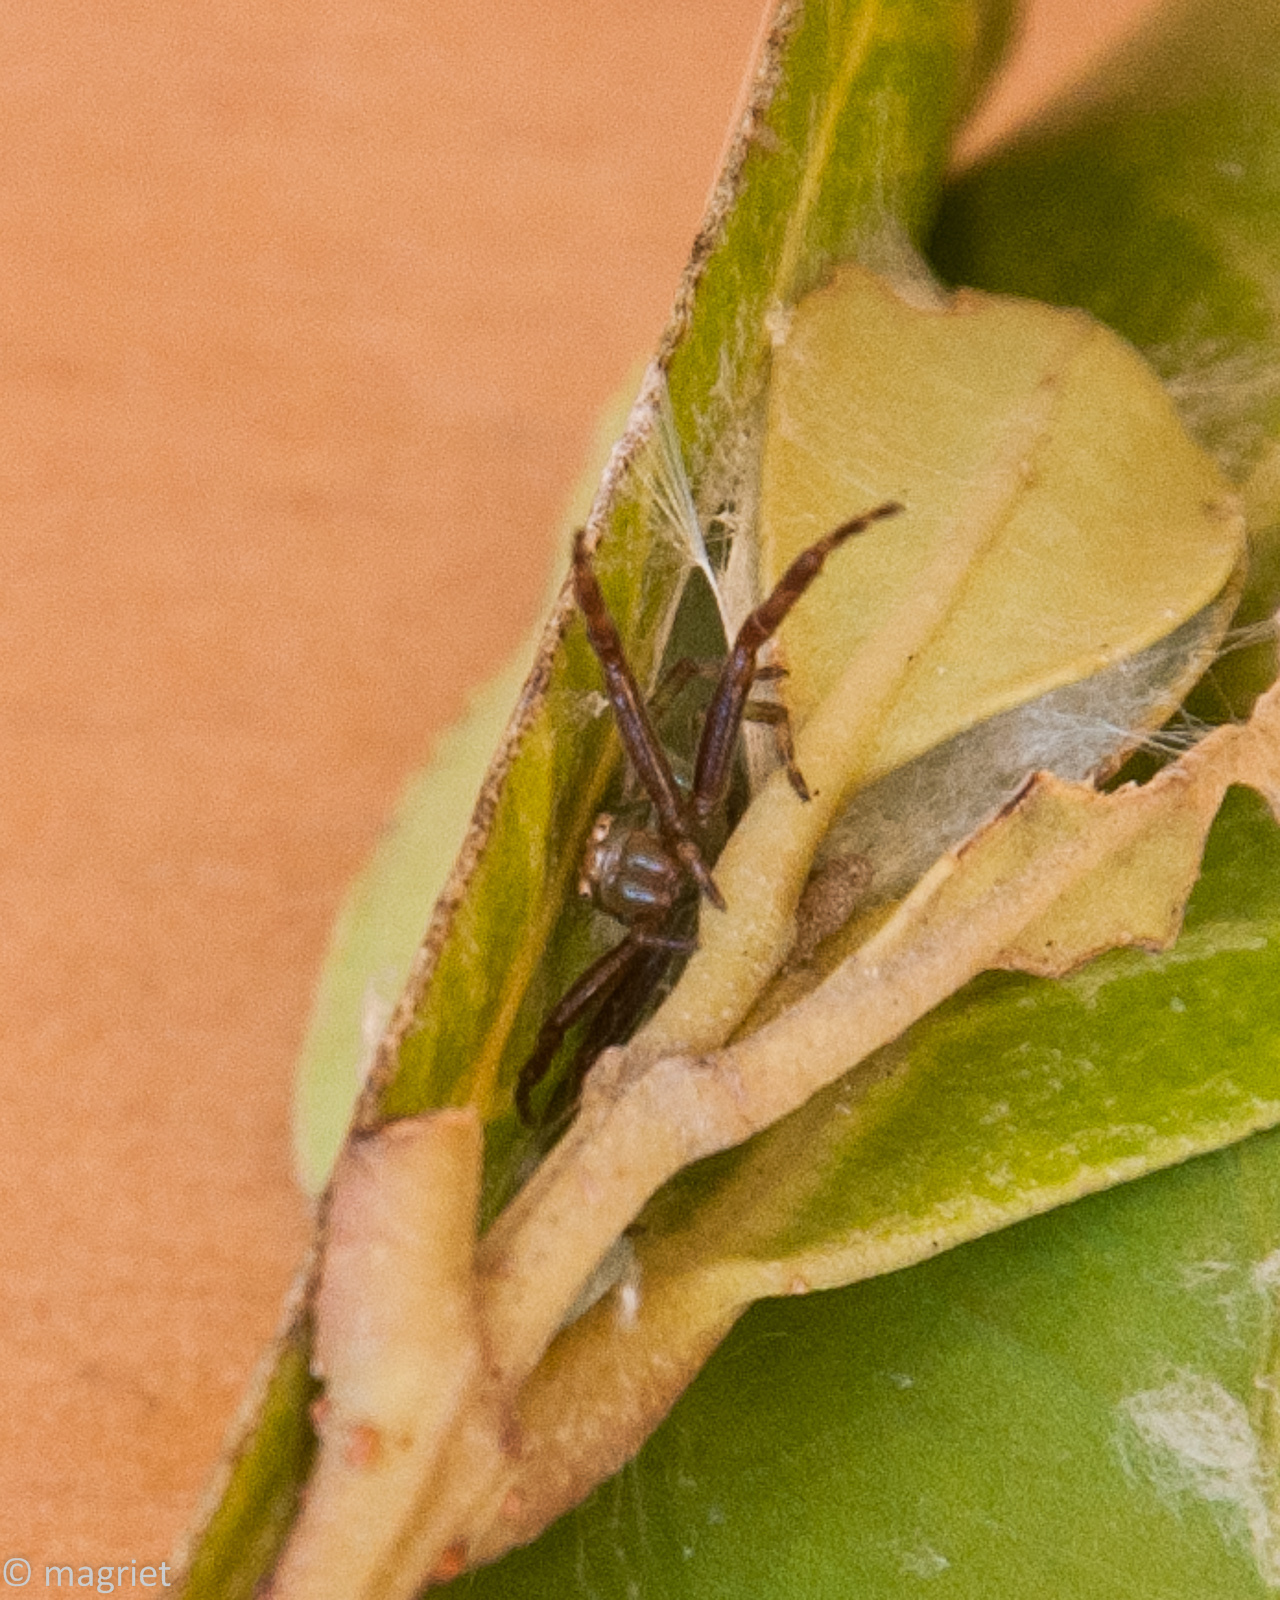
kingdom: Animalia
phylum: Arthropoda
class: Arachnida
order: Araneae
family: Thomisidae
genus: Synema
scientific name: Synema imitatrix
